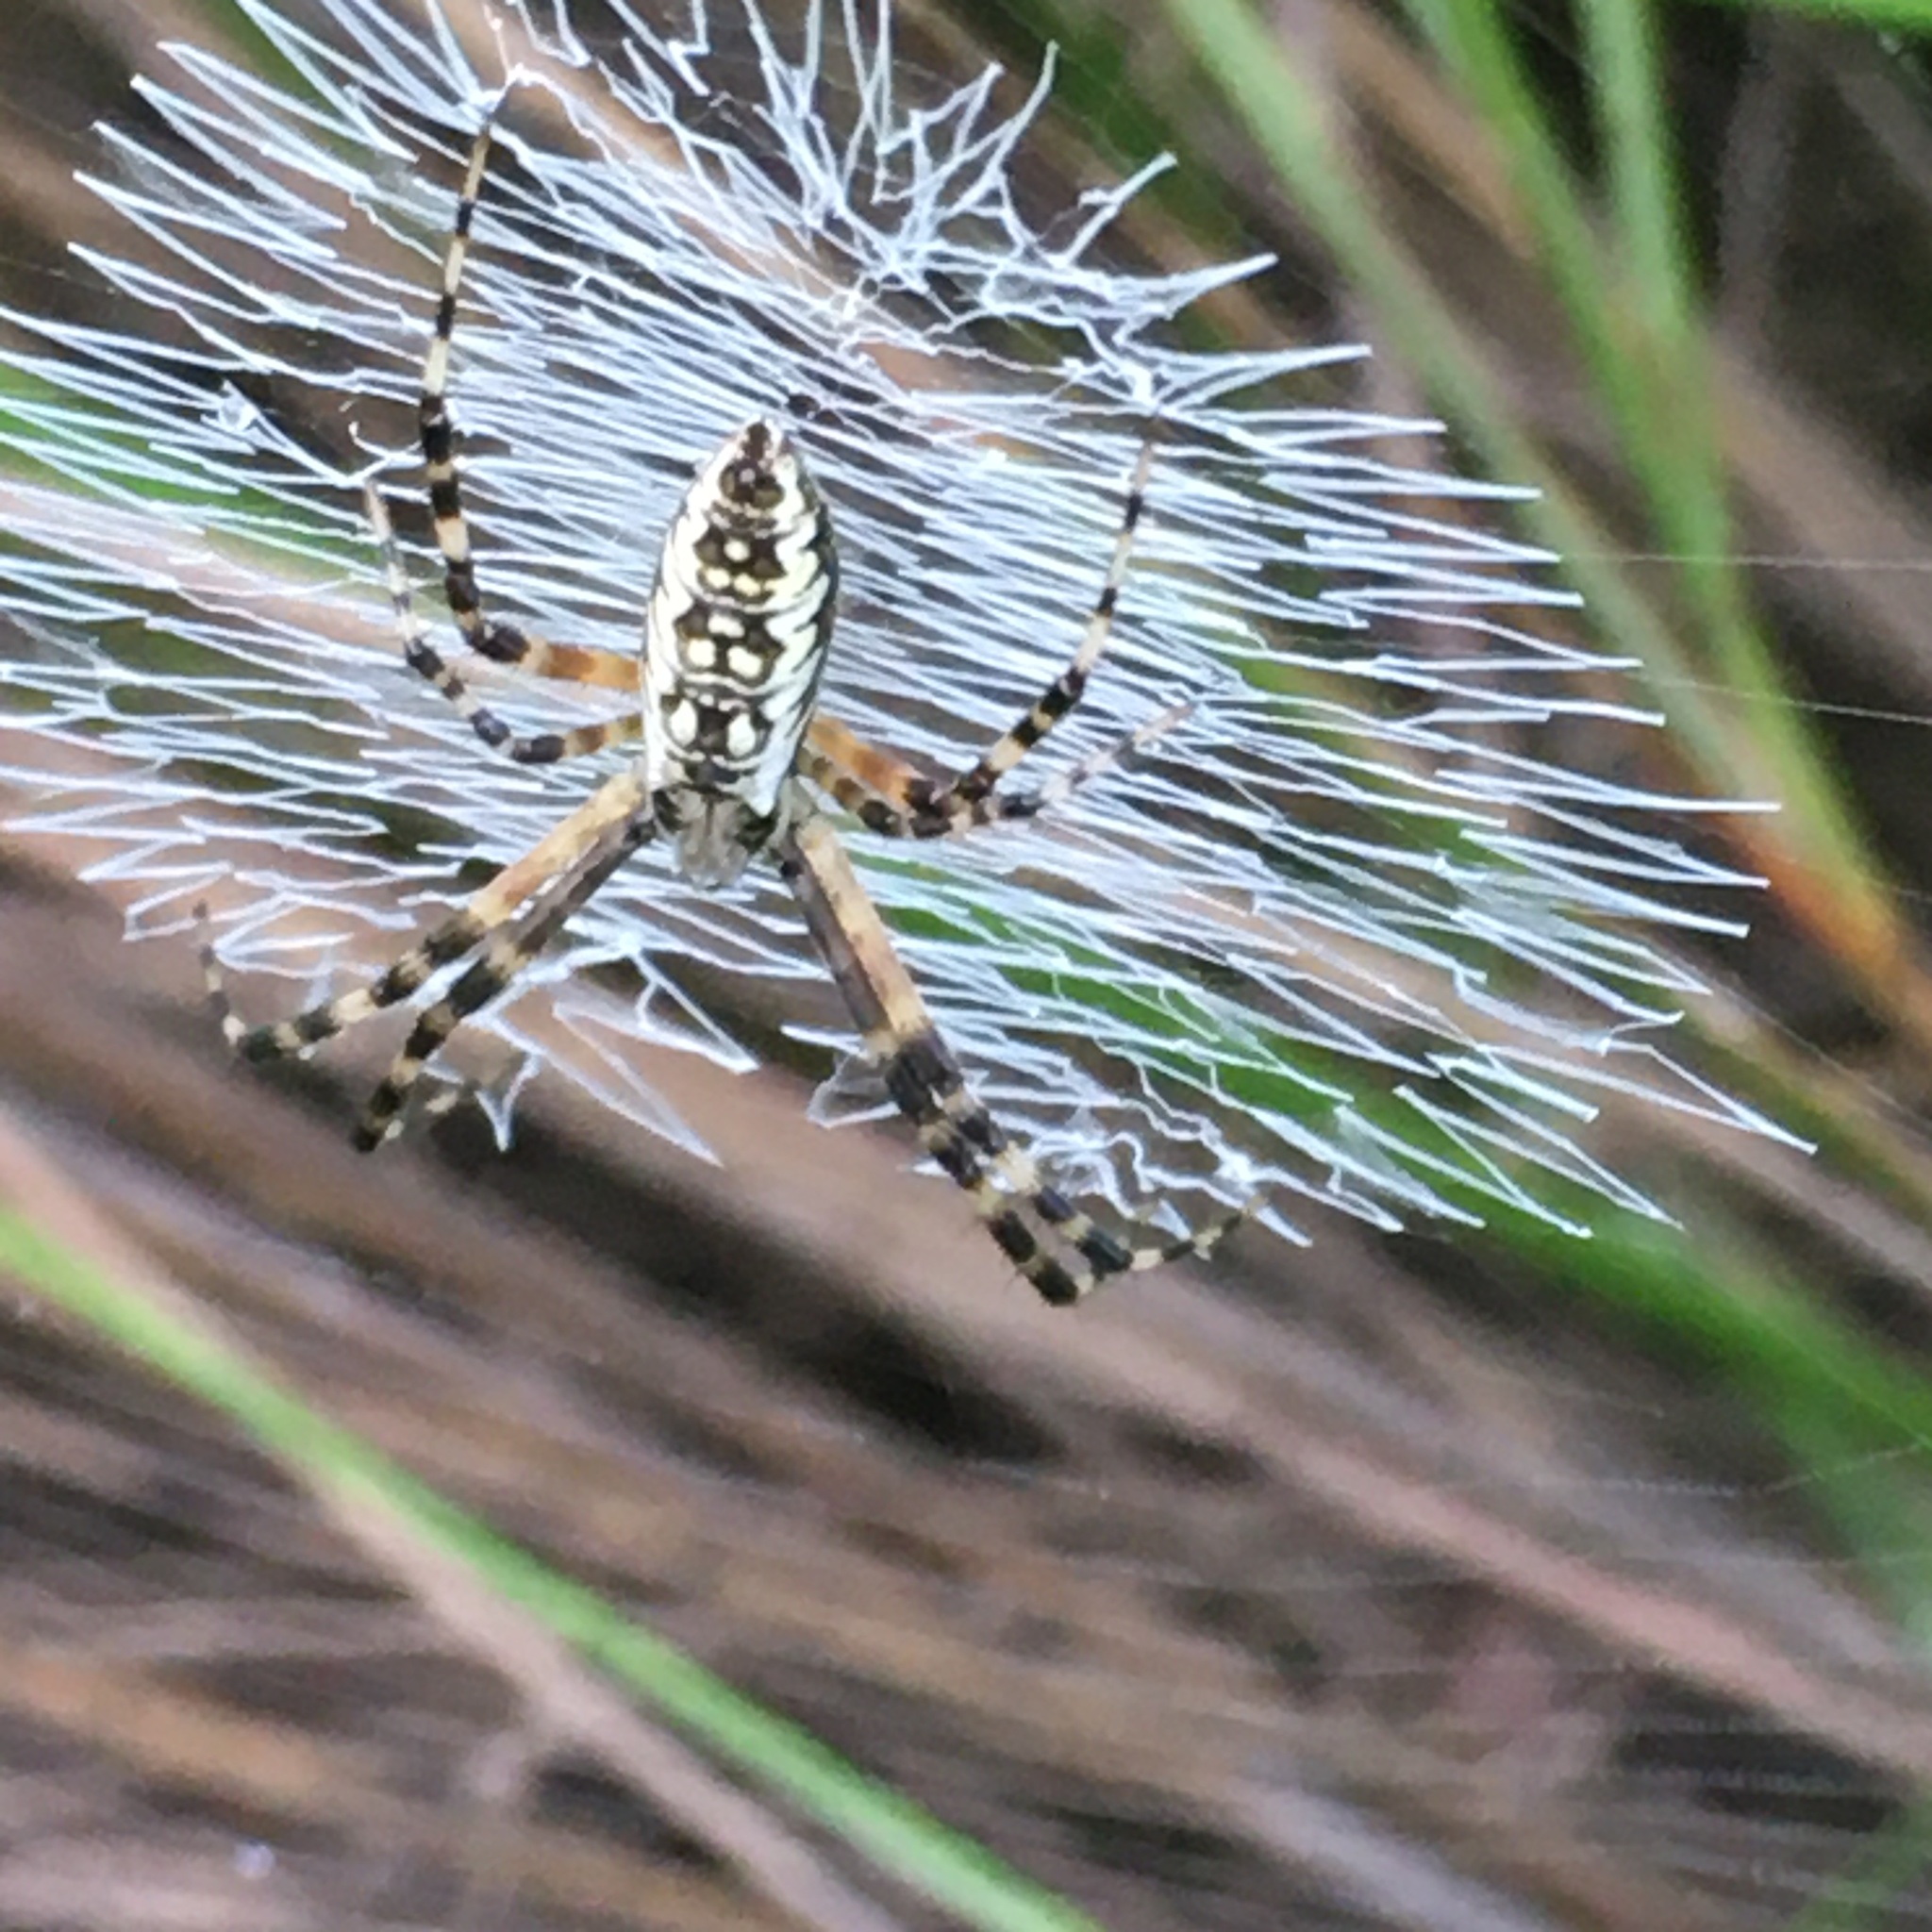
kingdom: Animalia
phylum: Arthropoda
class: Arachnida
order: Araneae
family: Araneidae
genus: Argiope
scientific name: Argiope aurantia
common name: Orb weavers
